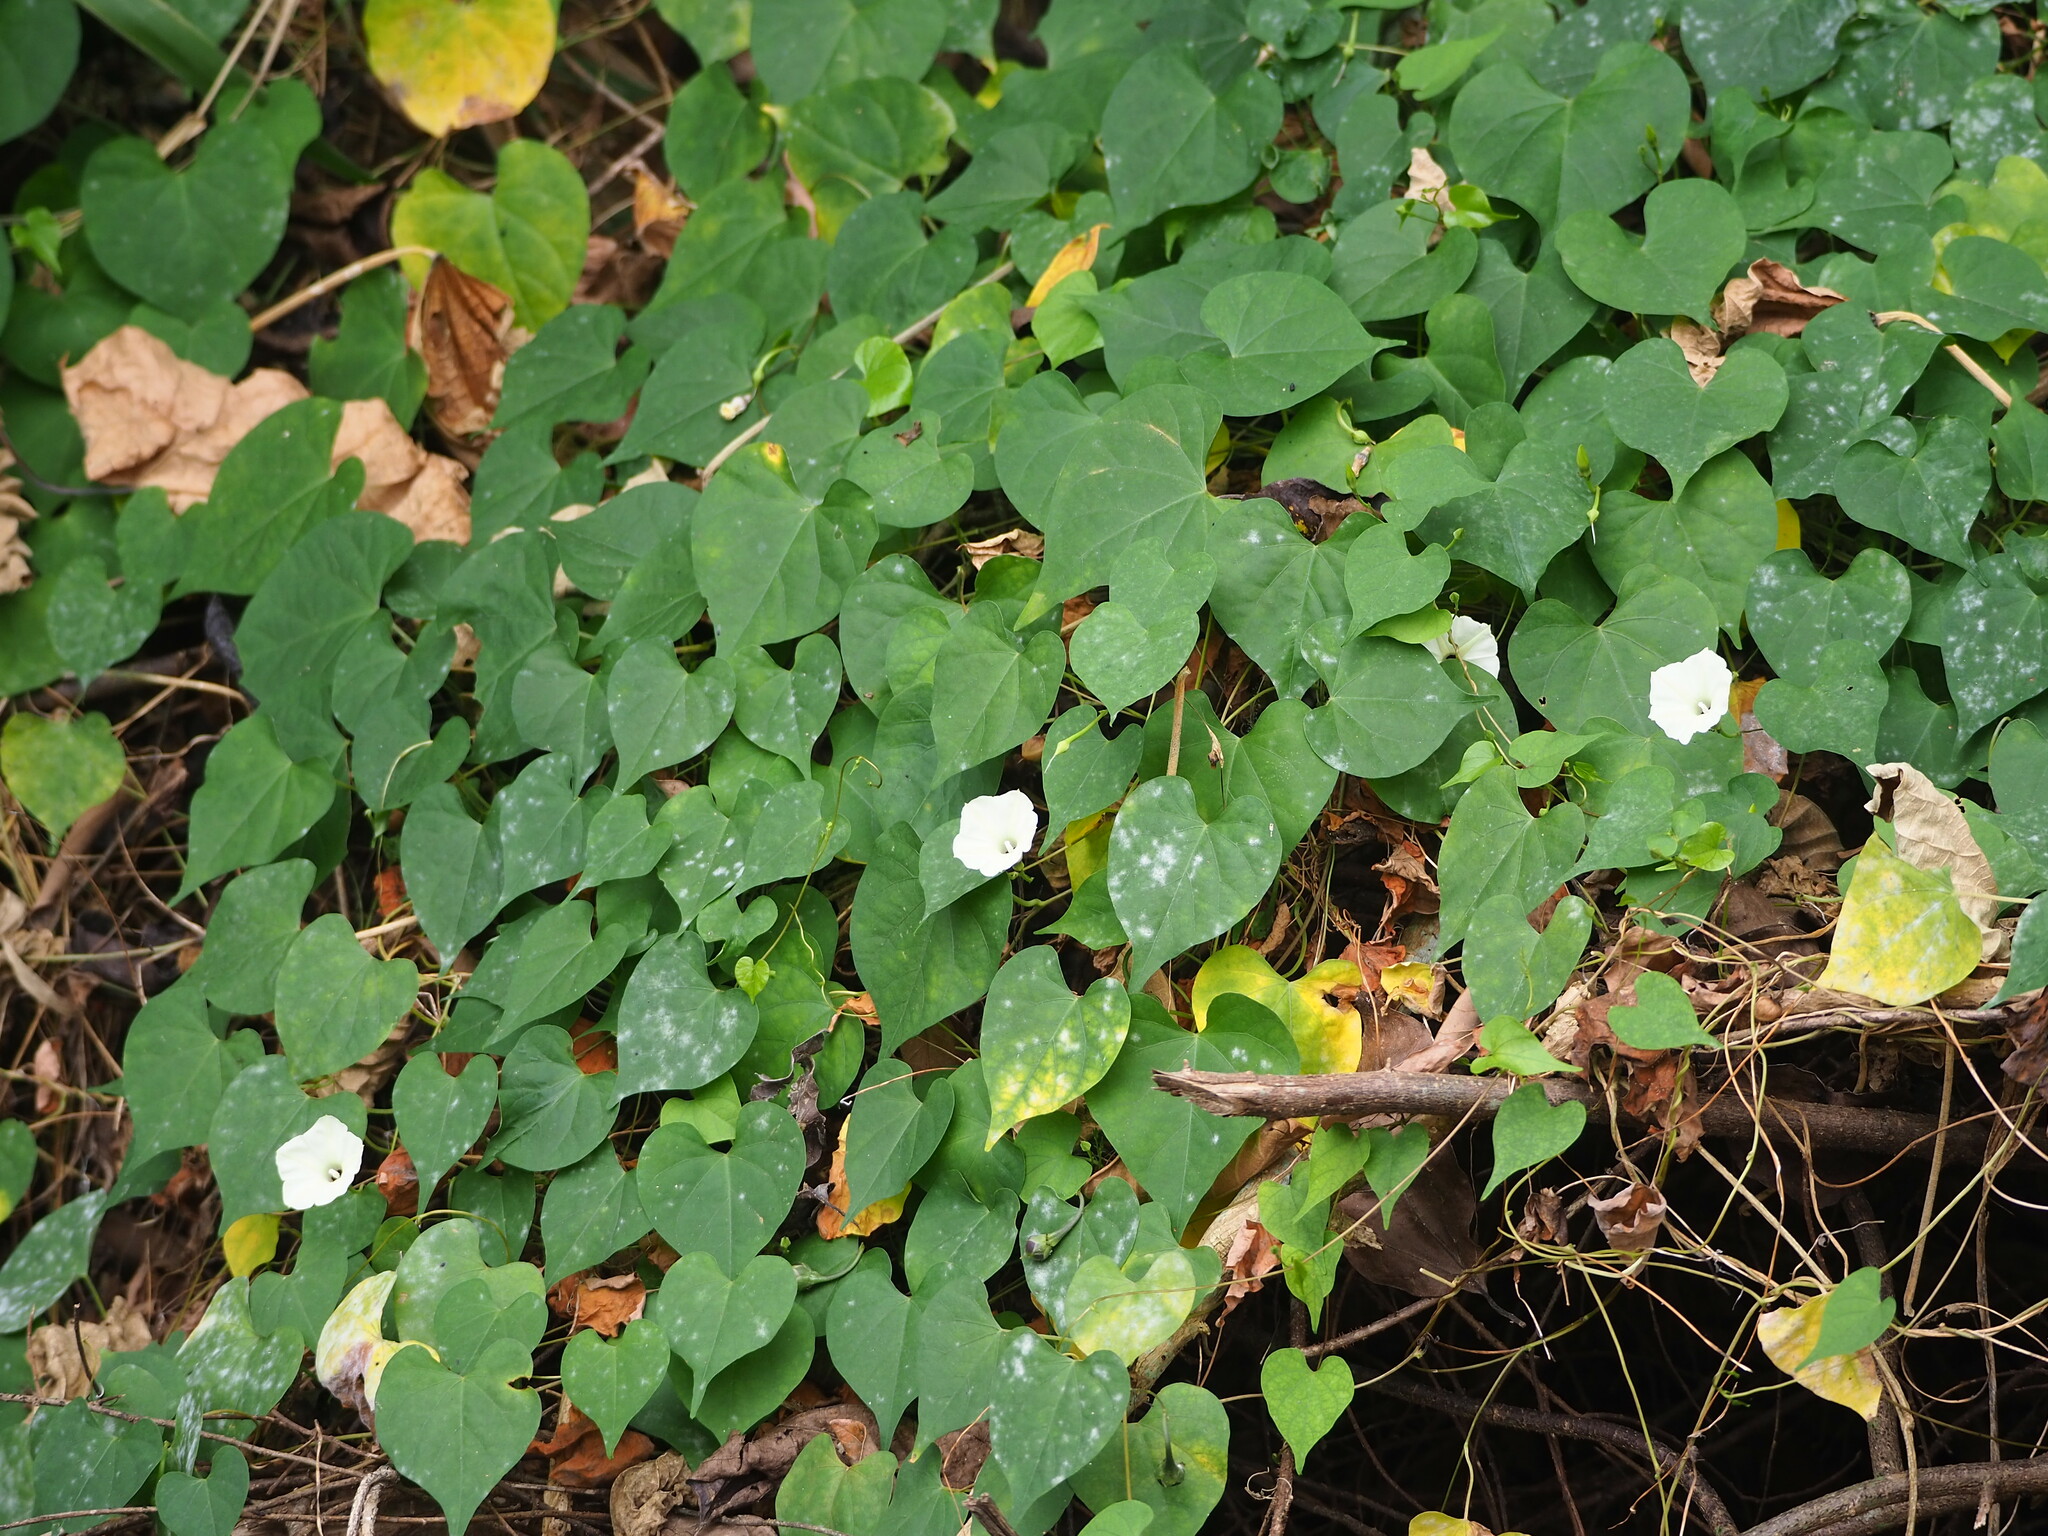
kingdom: Plantae
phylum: Tracheophyta
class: Magnoliopsida
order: Solanales
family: Convolvulaceae
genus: Ipomoea
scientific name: Ipomoea obscura
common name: Obscure morning-glory
